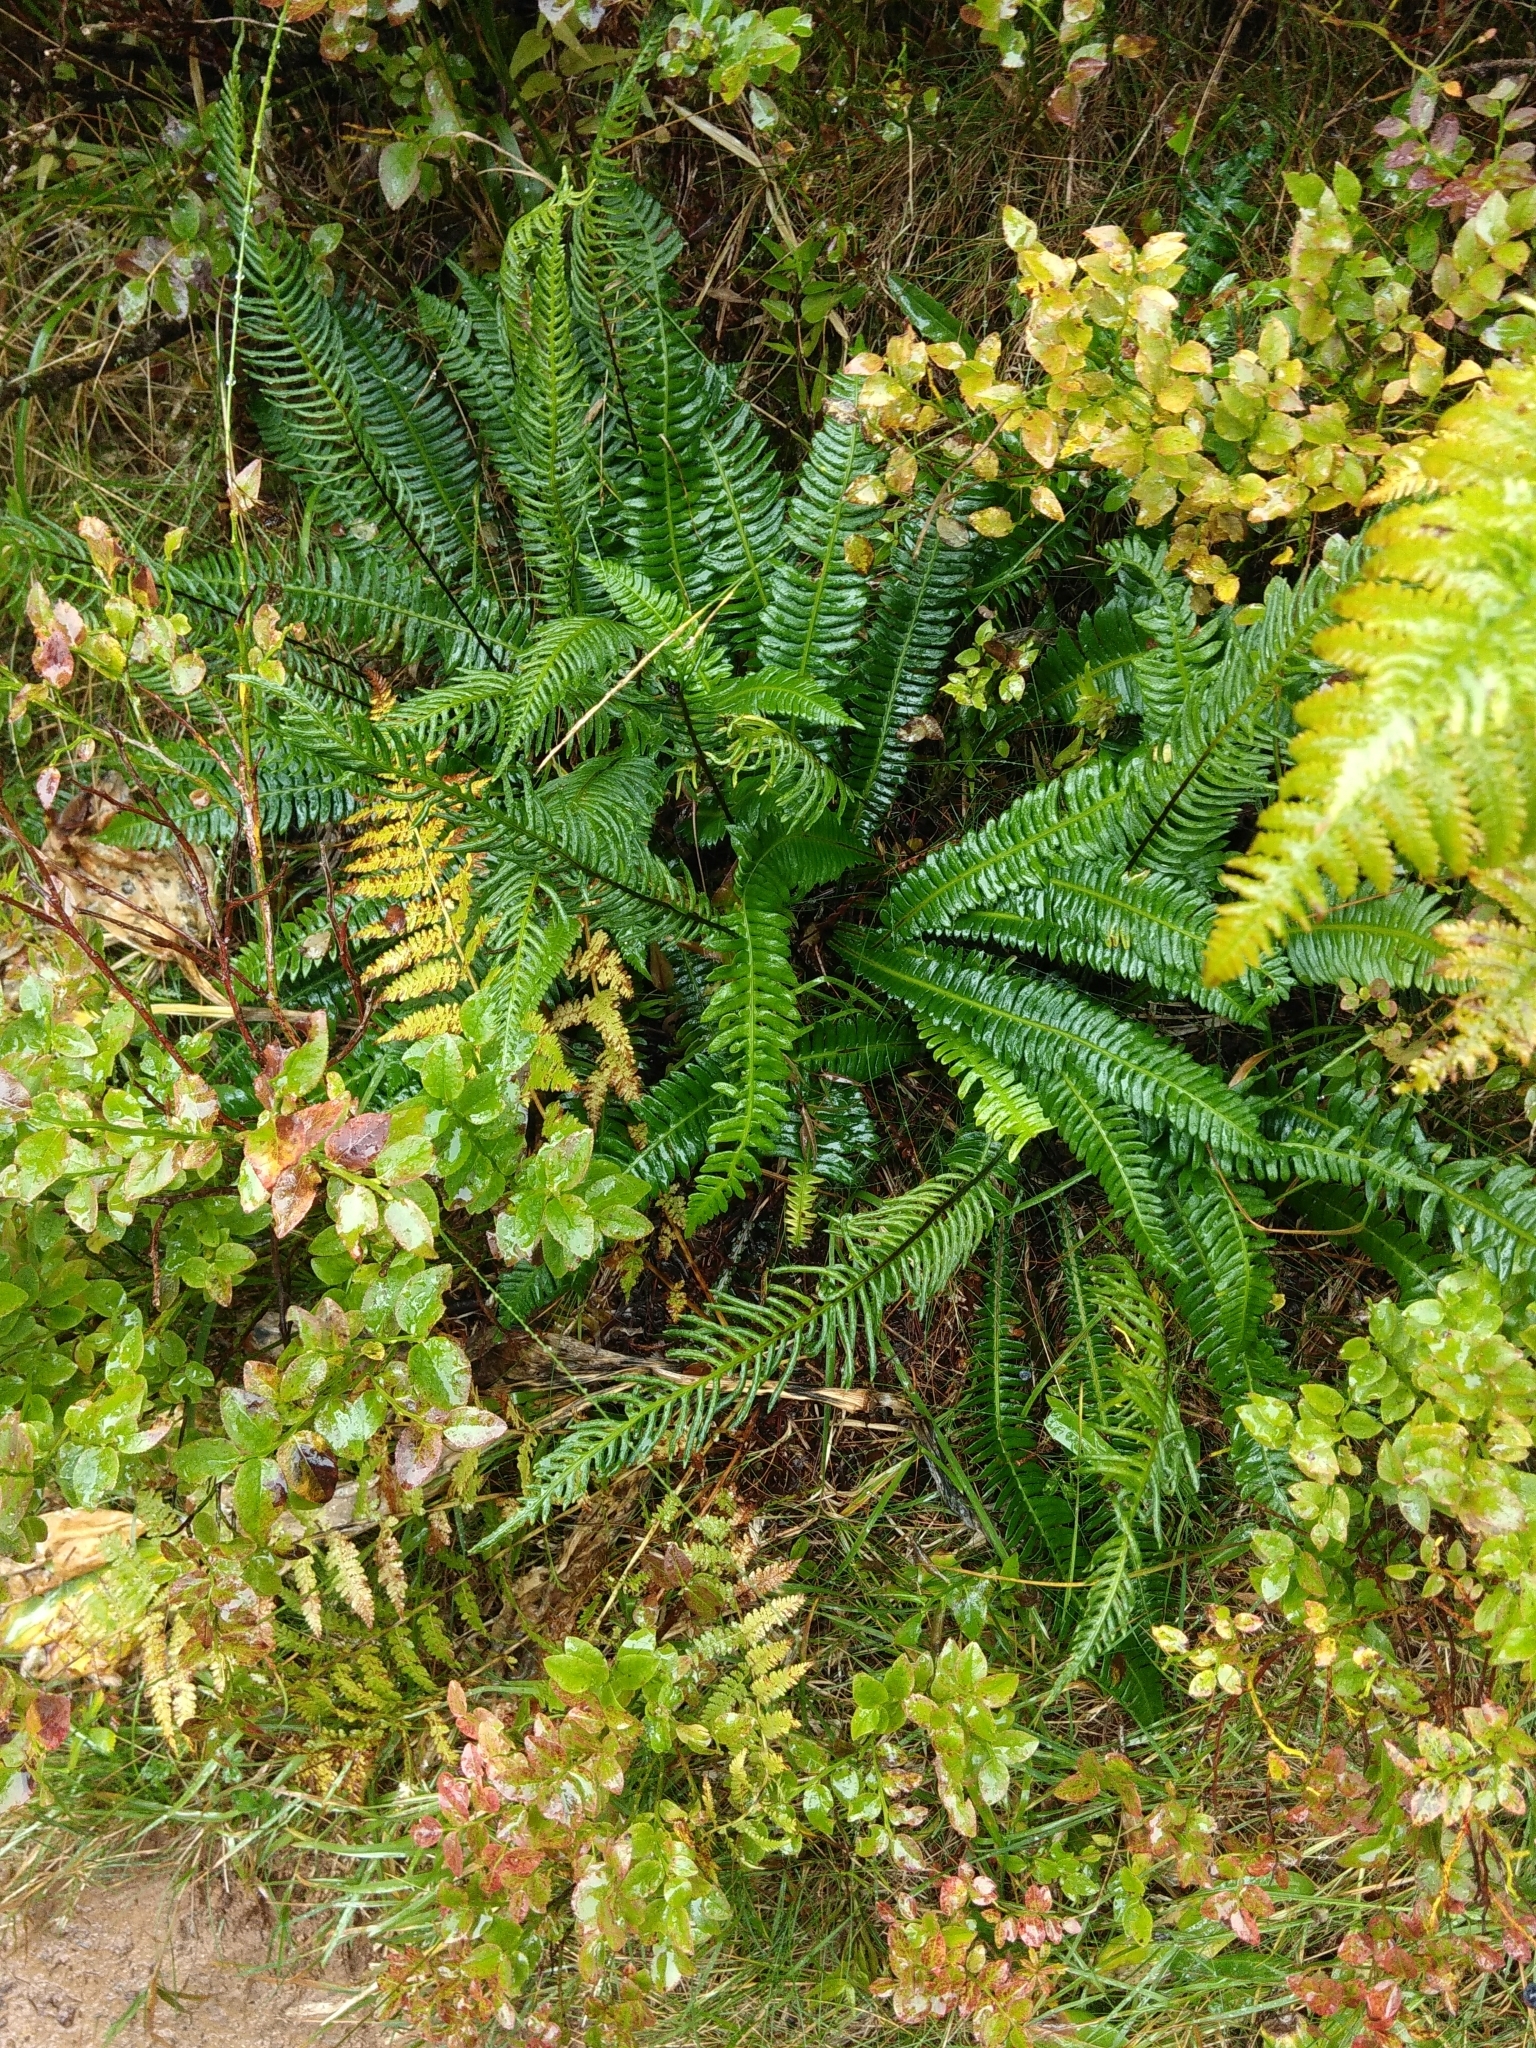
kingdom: Plantae
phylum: Tracheophyta
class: Polypodiopsida
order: Polypodiales
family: Blechnaceae
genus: Struthiopteris
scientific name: Struthiopteris spicant
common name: Deer fern
